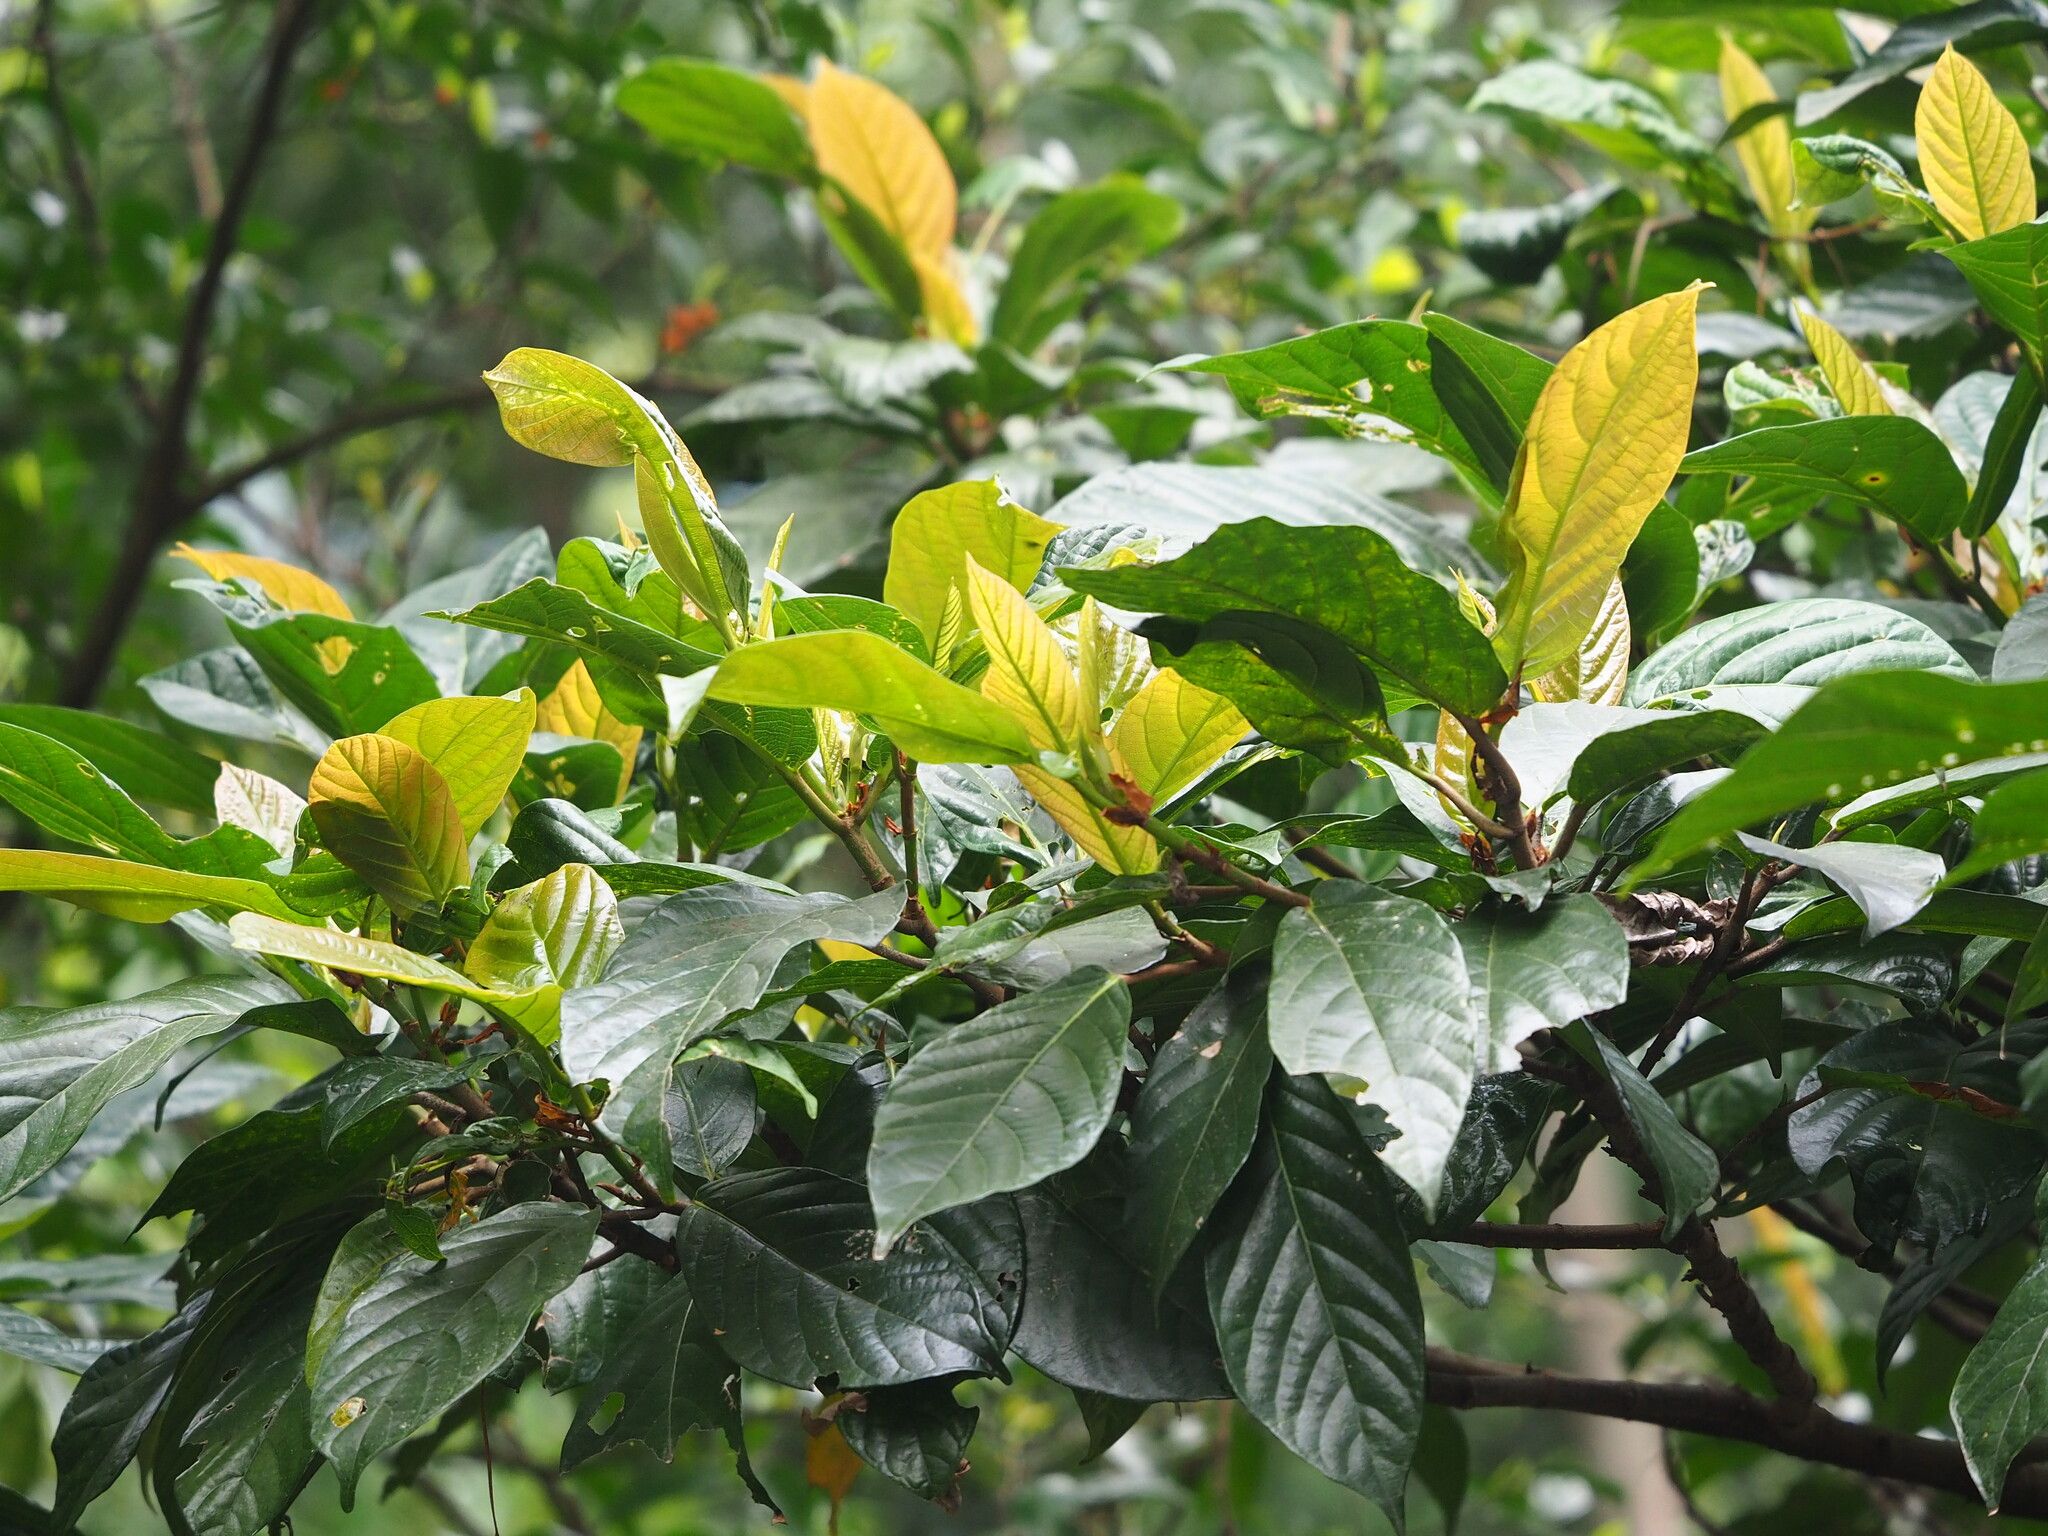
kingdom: Plantae
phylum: Tracheophyta
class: Magnoliopsida
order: Rosales
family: Moraceae
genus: Ficus
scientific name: Ficus benguetensis
